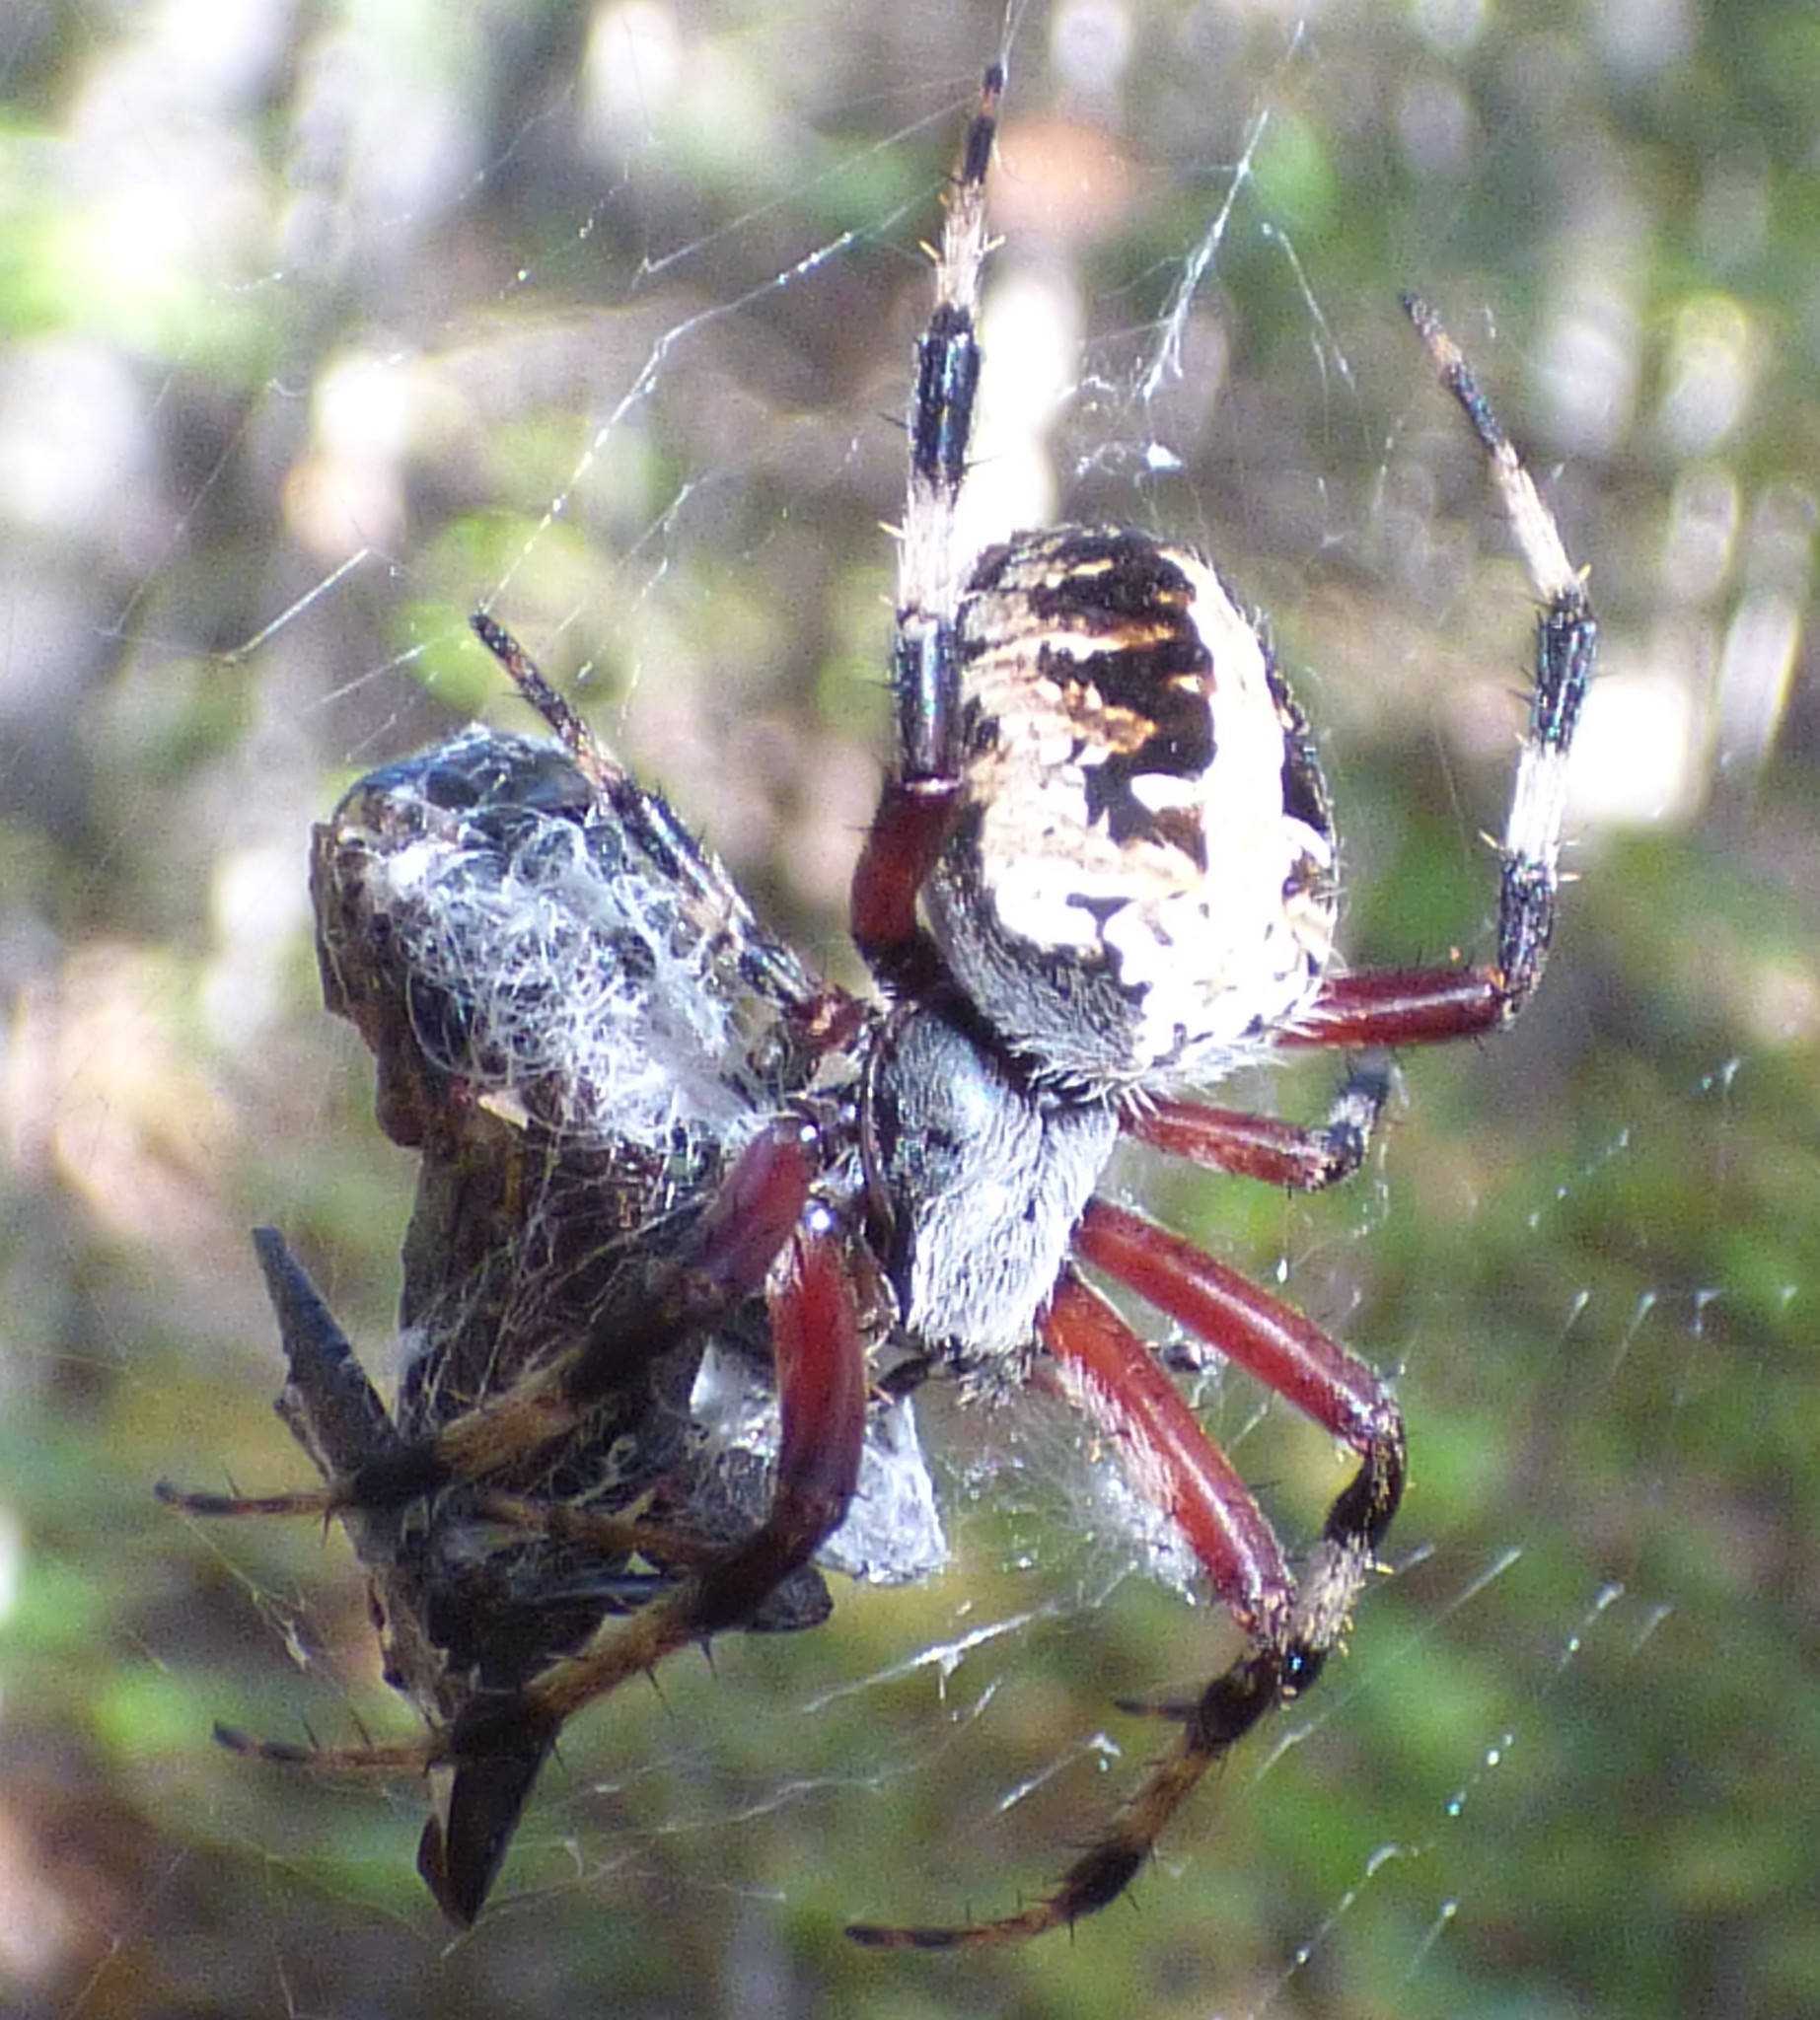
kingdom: Animalia
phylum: Arthropoda
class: Arachnida
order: Araneae
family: Araneidae
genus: Neoscona
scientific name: Neoscona domiciliorum
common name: Red-femured spotted orbweaver
